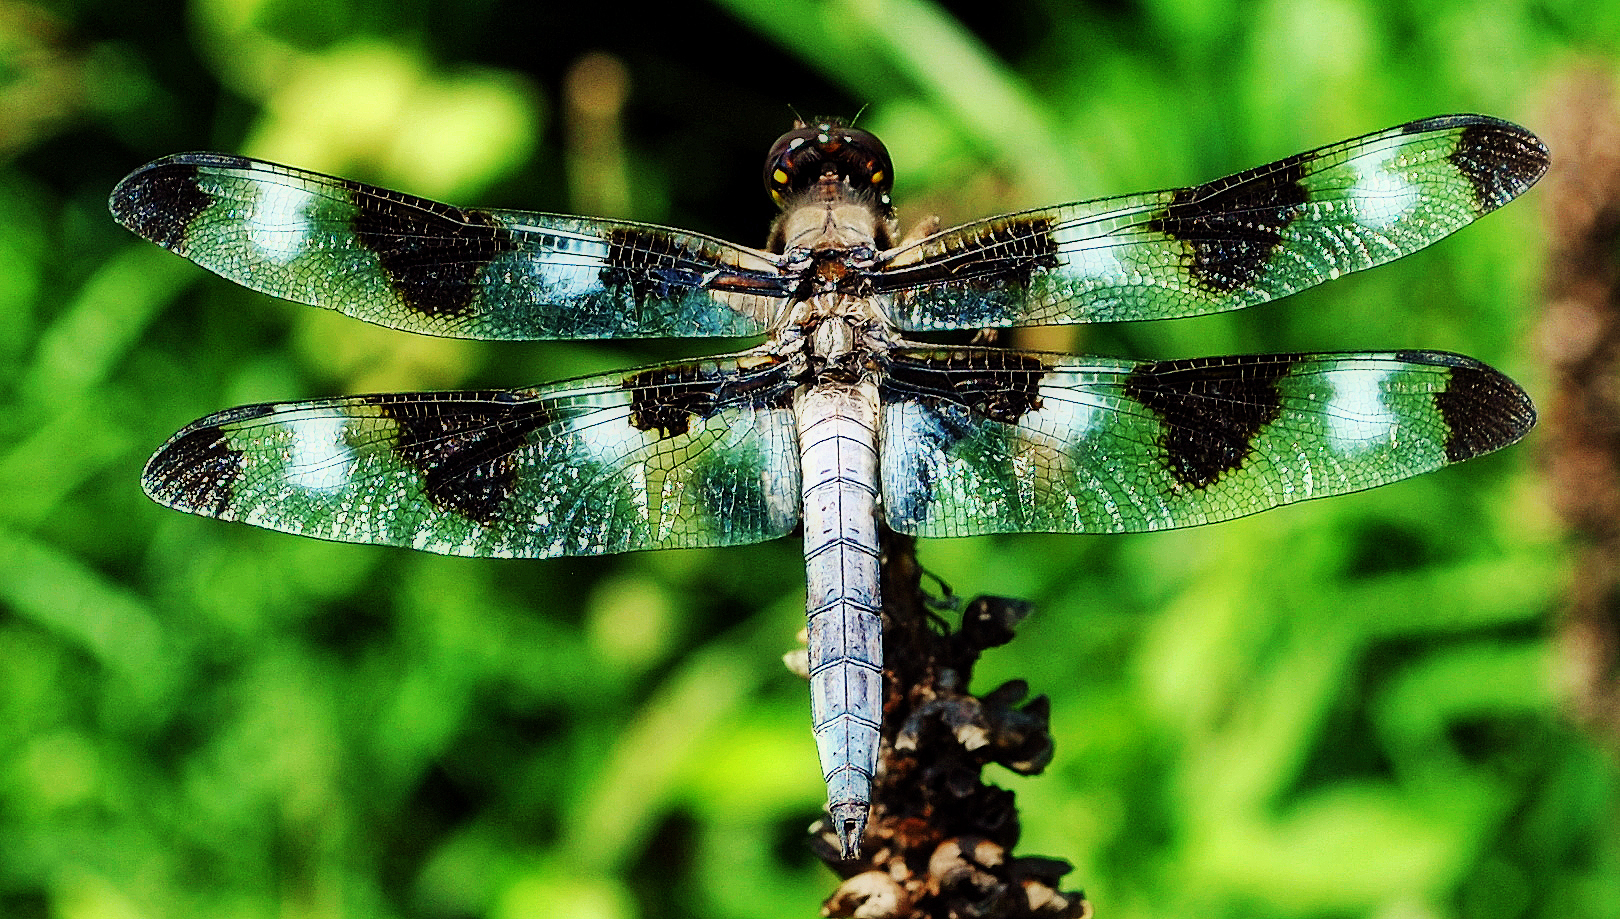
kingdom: Animalia
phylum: Arthropoda
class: Insecta
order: Odonata
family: Libellulidae
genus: Libellula
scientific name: Libellula pulchella
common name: Twelve-spotted skimmer
